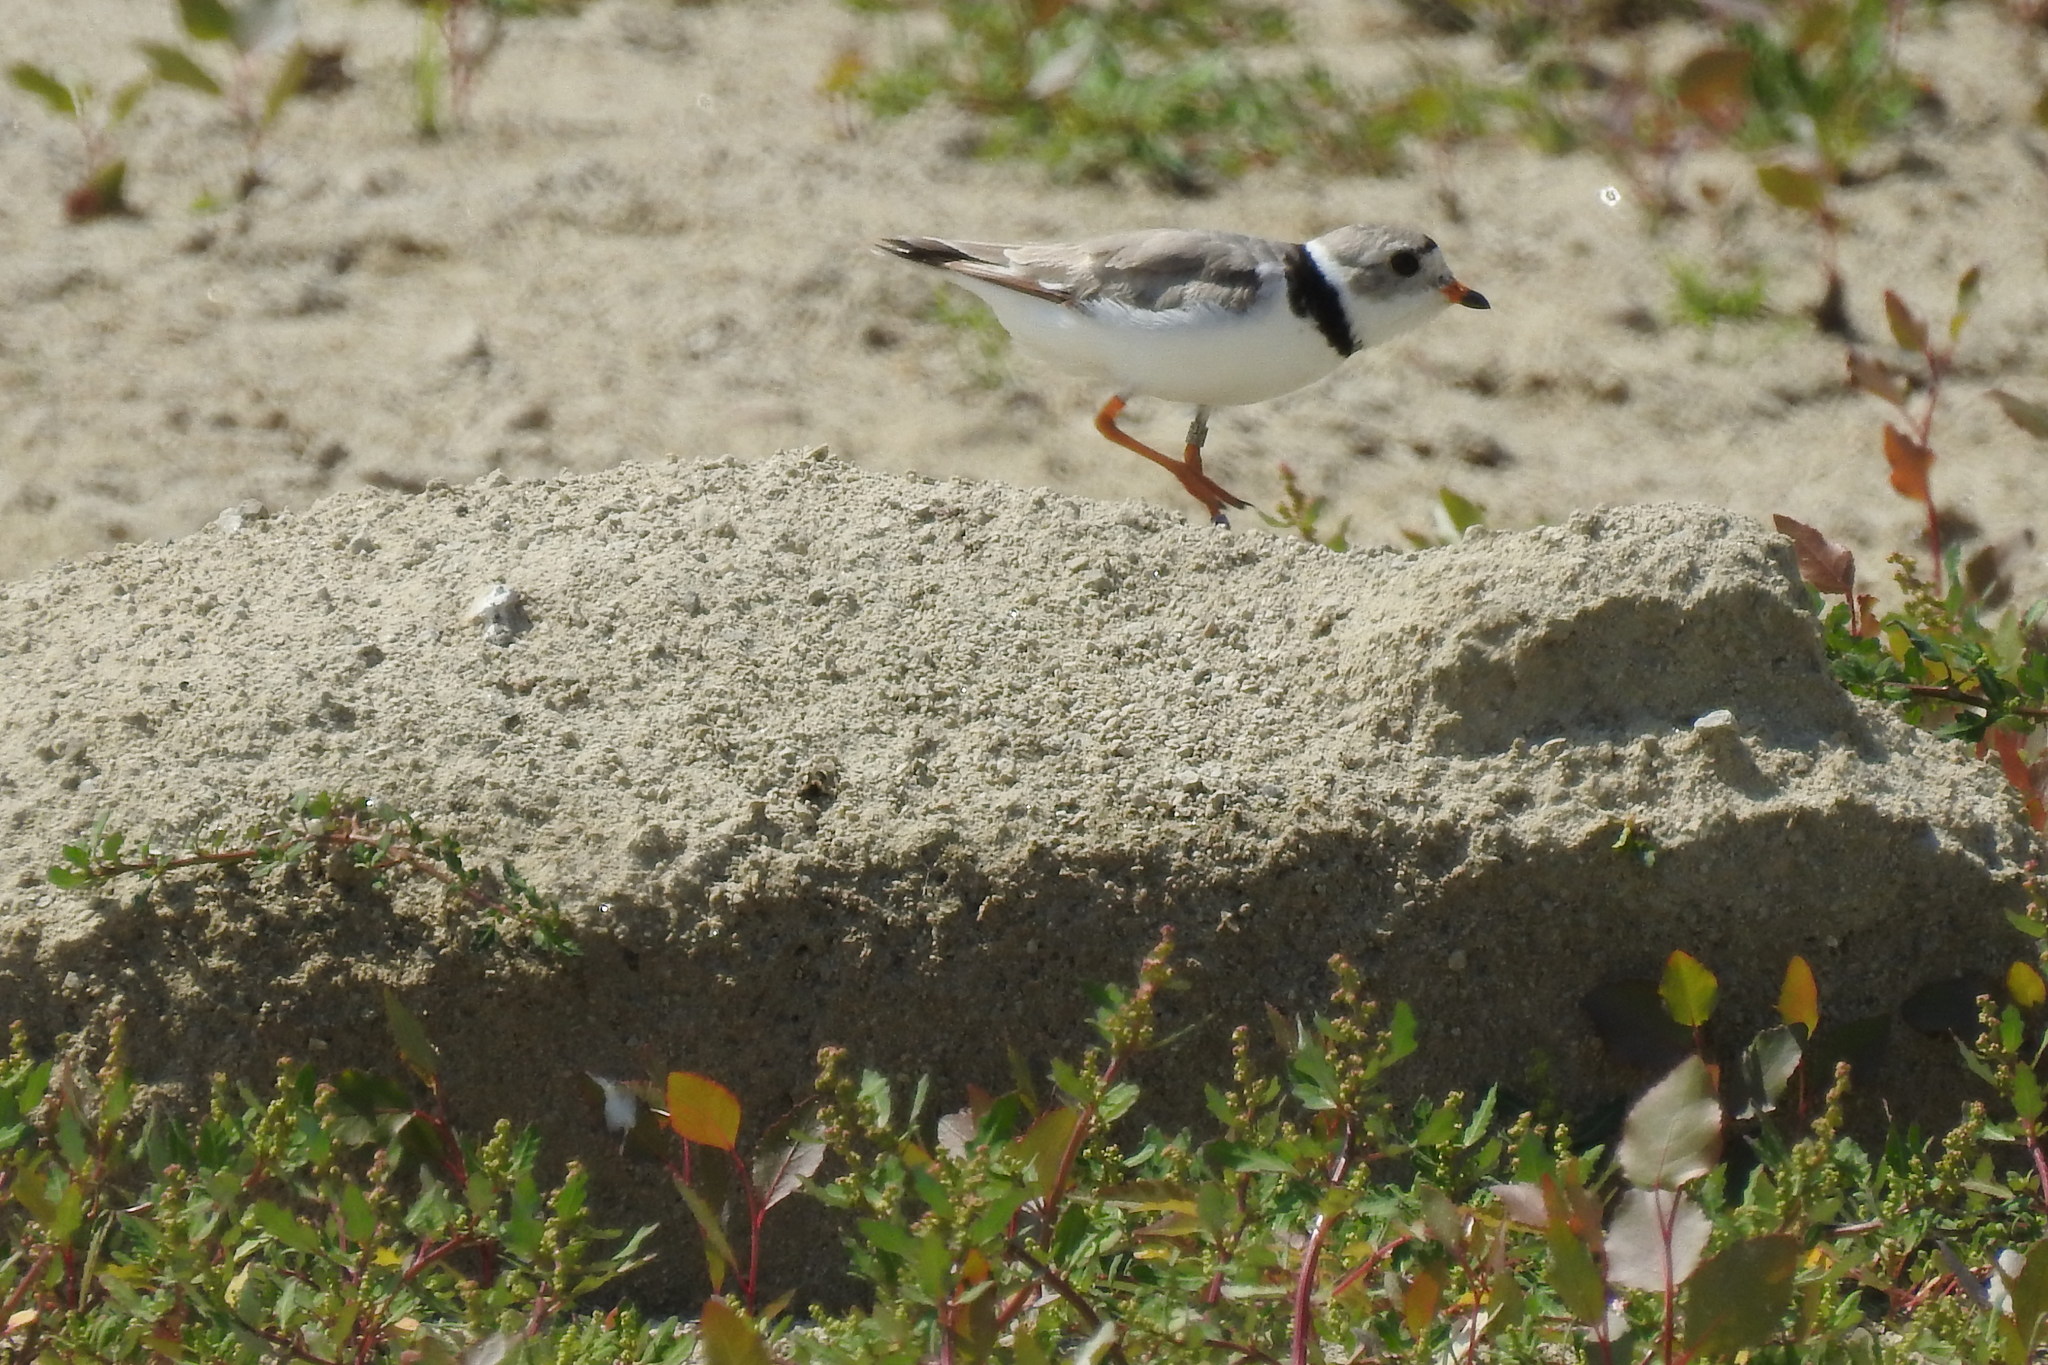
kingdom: Animalia
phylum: Chordata
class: Aves
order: Charadriiformes
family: Charadriidae
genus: Charadrius
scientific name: Charadrius melodus
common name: Piping plover
